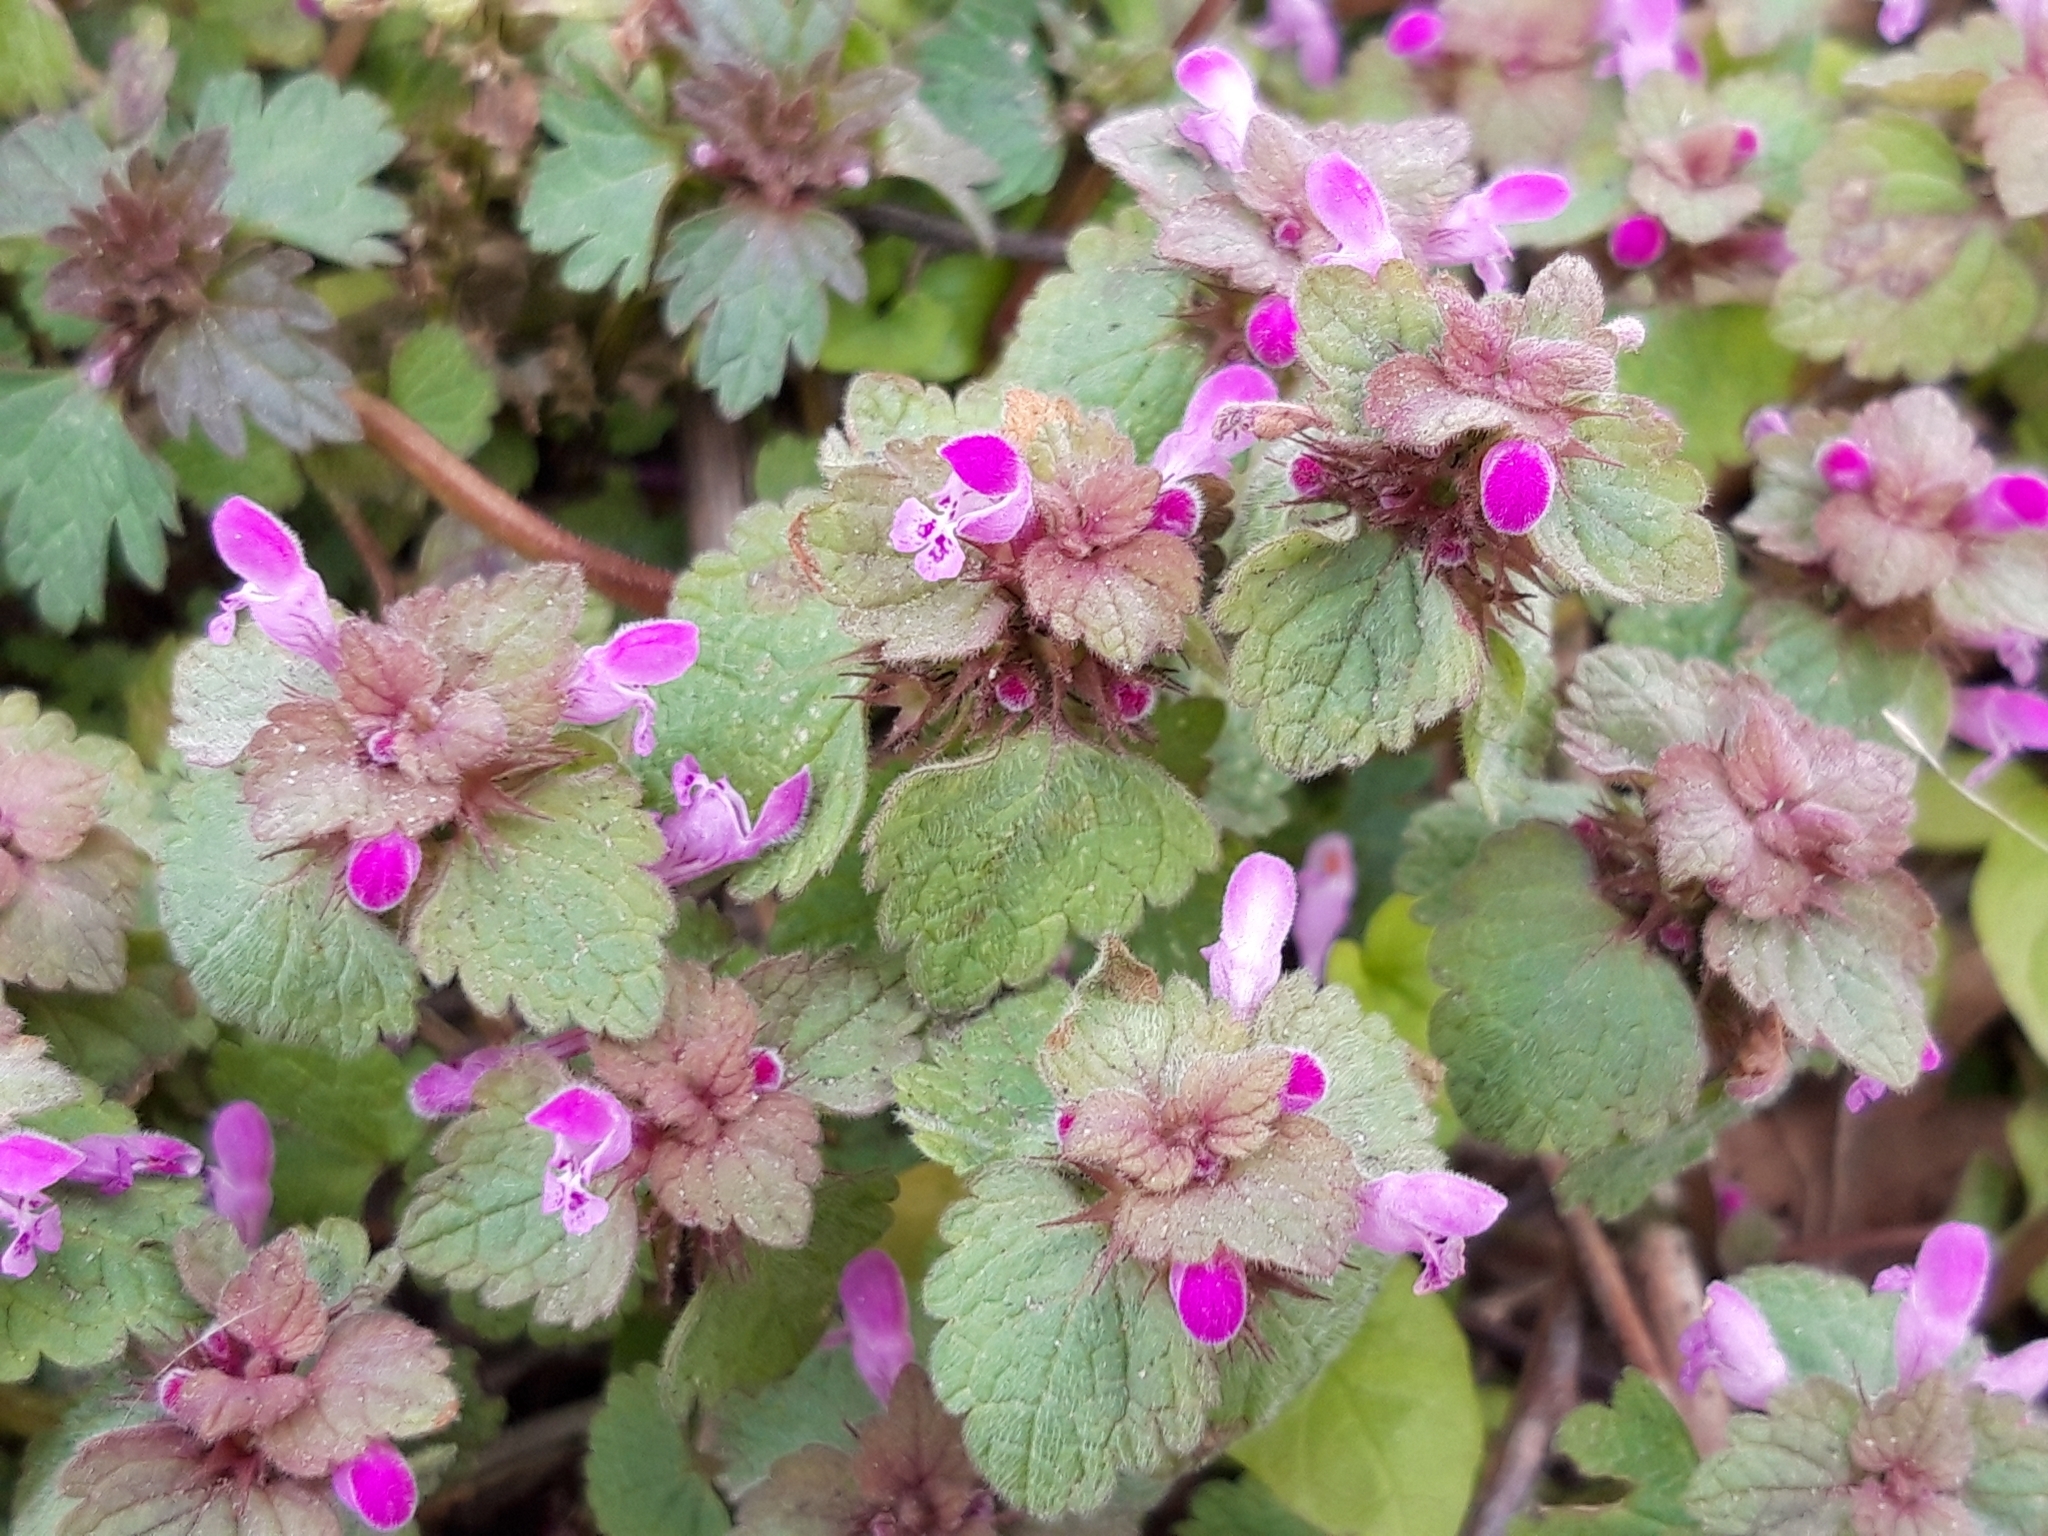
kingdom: Plantae
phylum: Tracheophyta
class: Magnoliopsida
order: Lamiales
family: Lamiaceae
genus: Lamium
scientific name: Lamium purpureum
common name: Red dead-nettle
